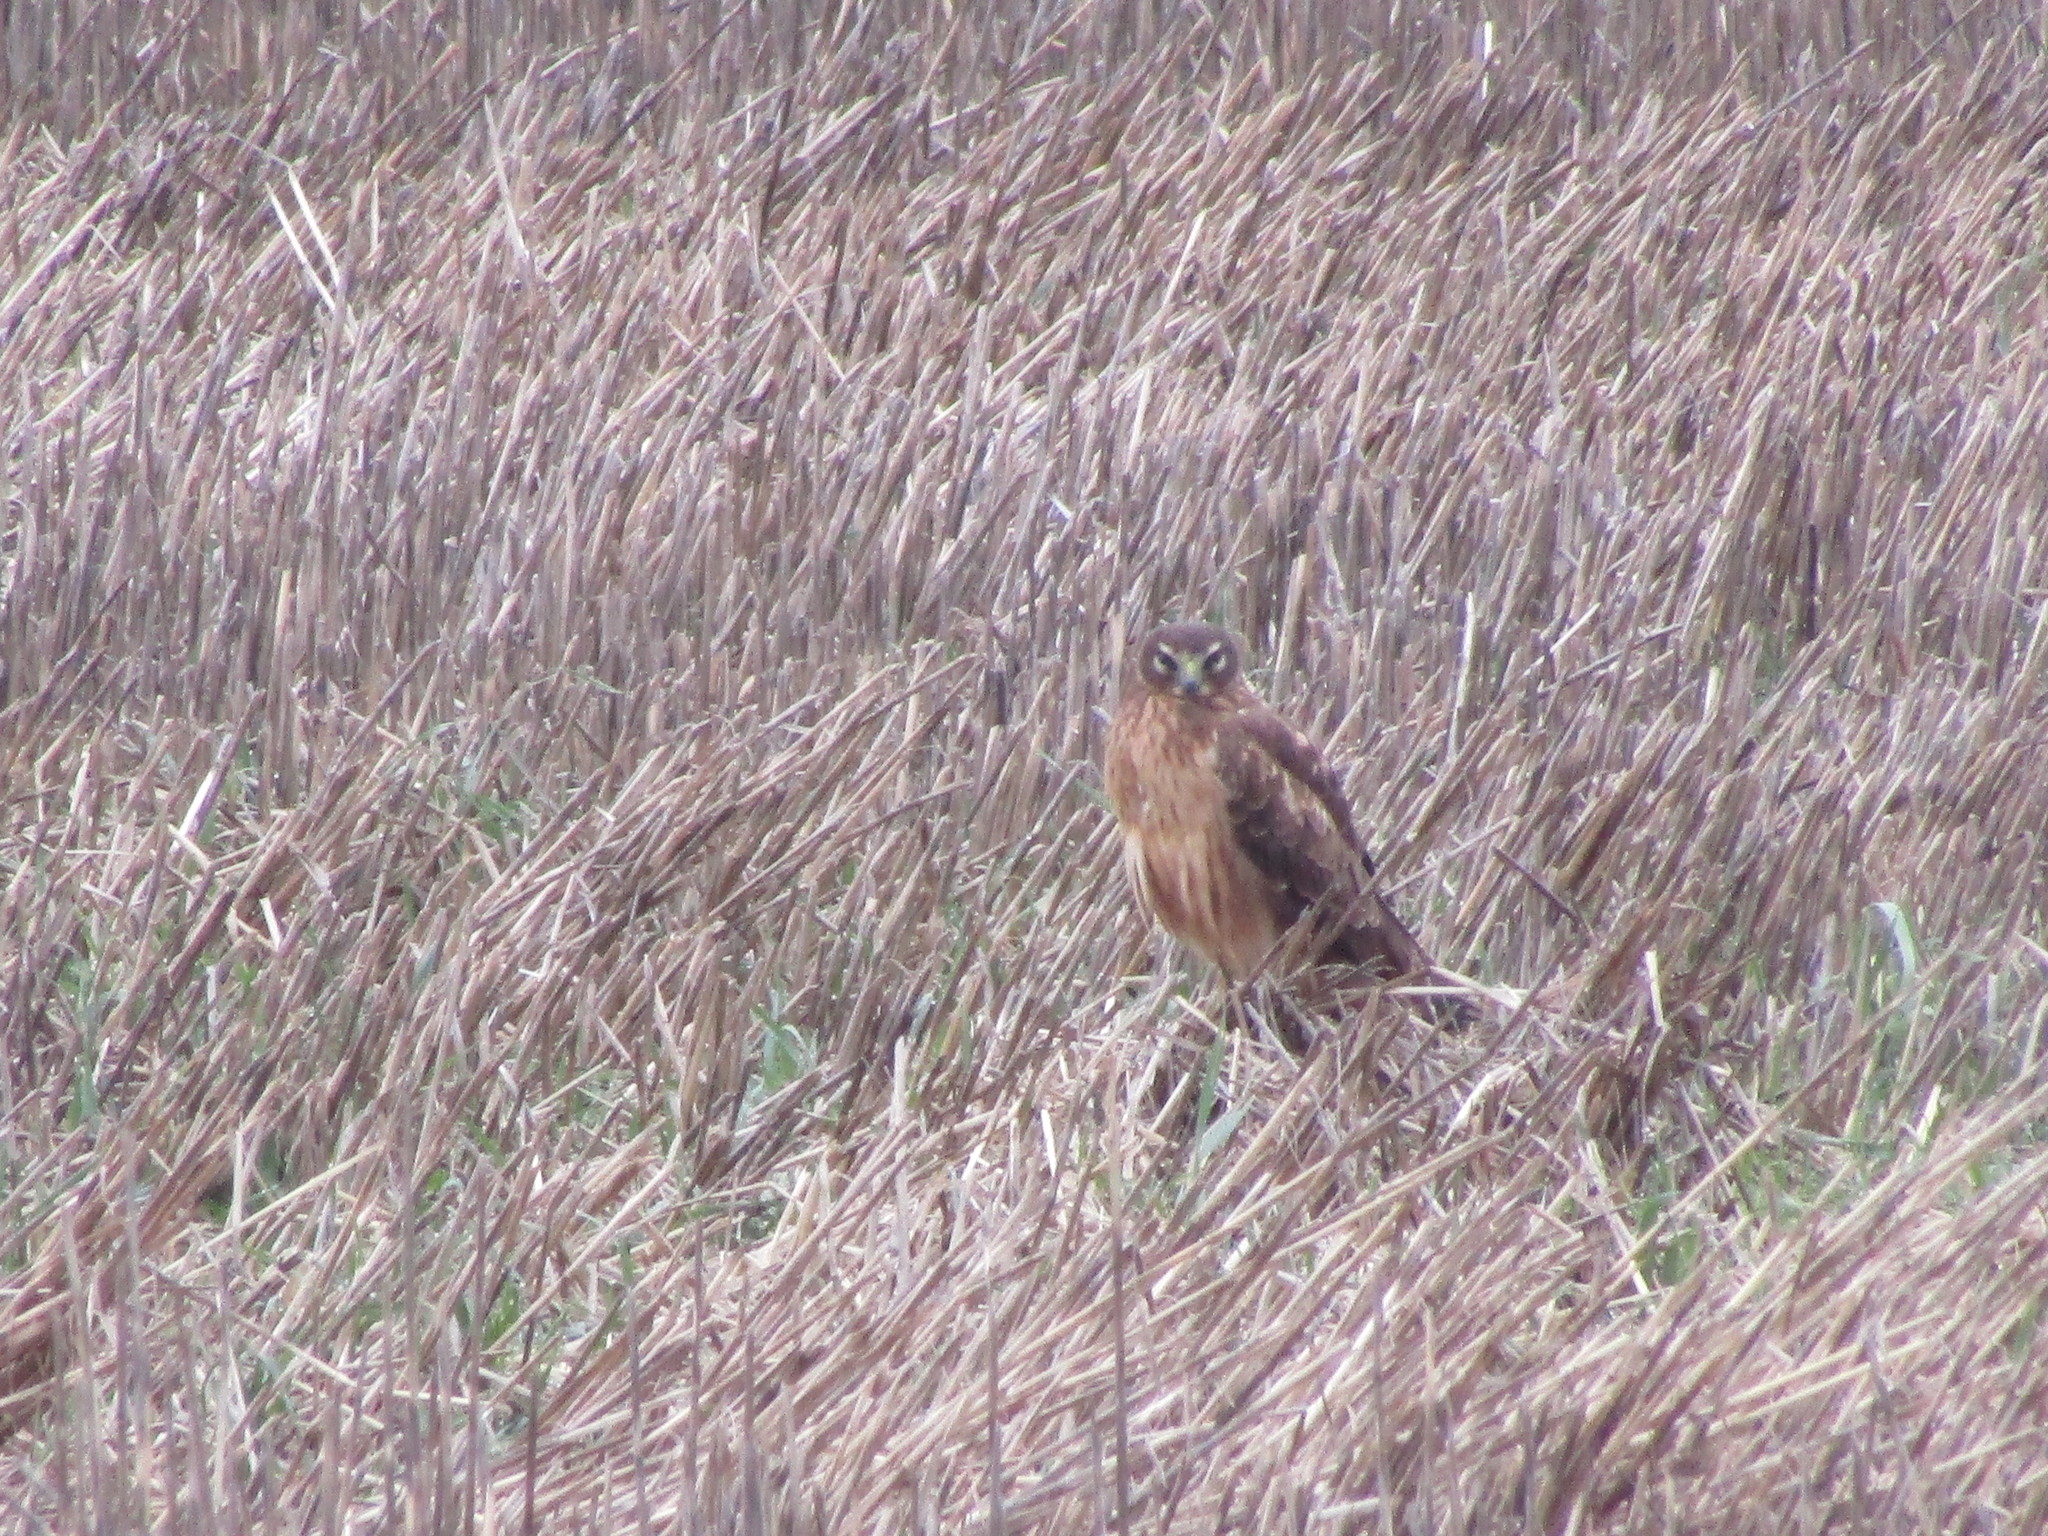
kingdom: Animalia
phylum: Chordata
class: Aves
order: Accipitriformes
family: Accipitridae
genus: Circus
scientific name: Circus cyaneus
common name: Hen harrier
